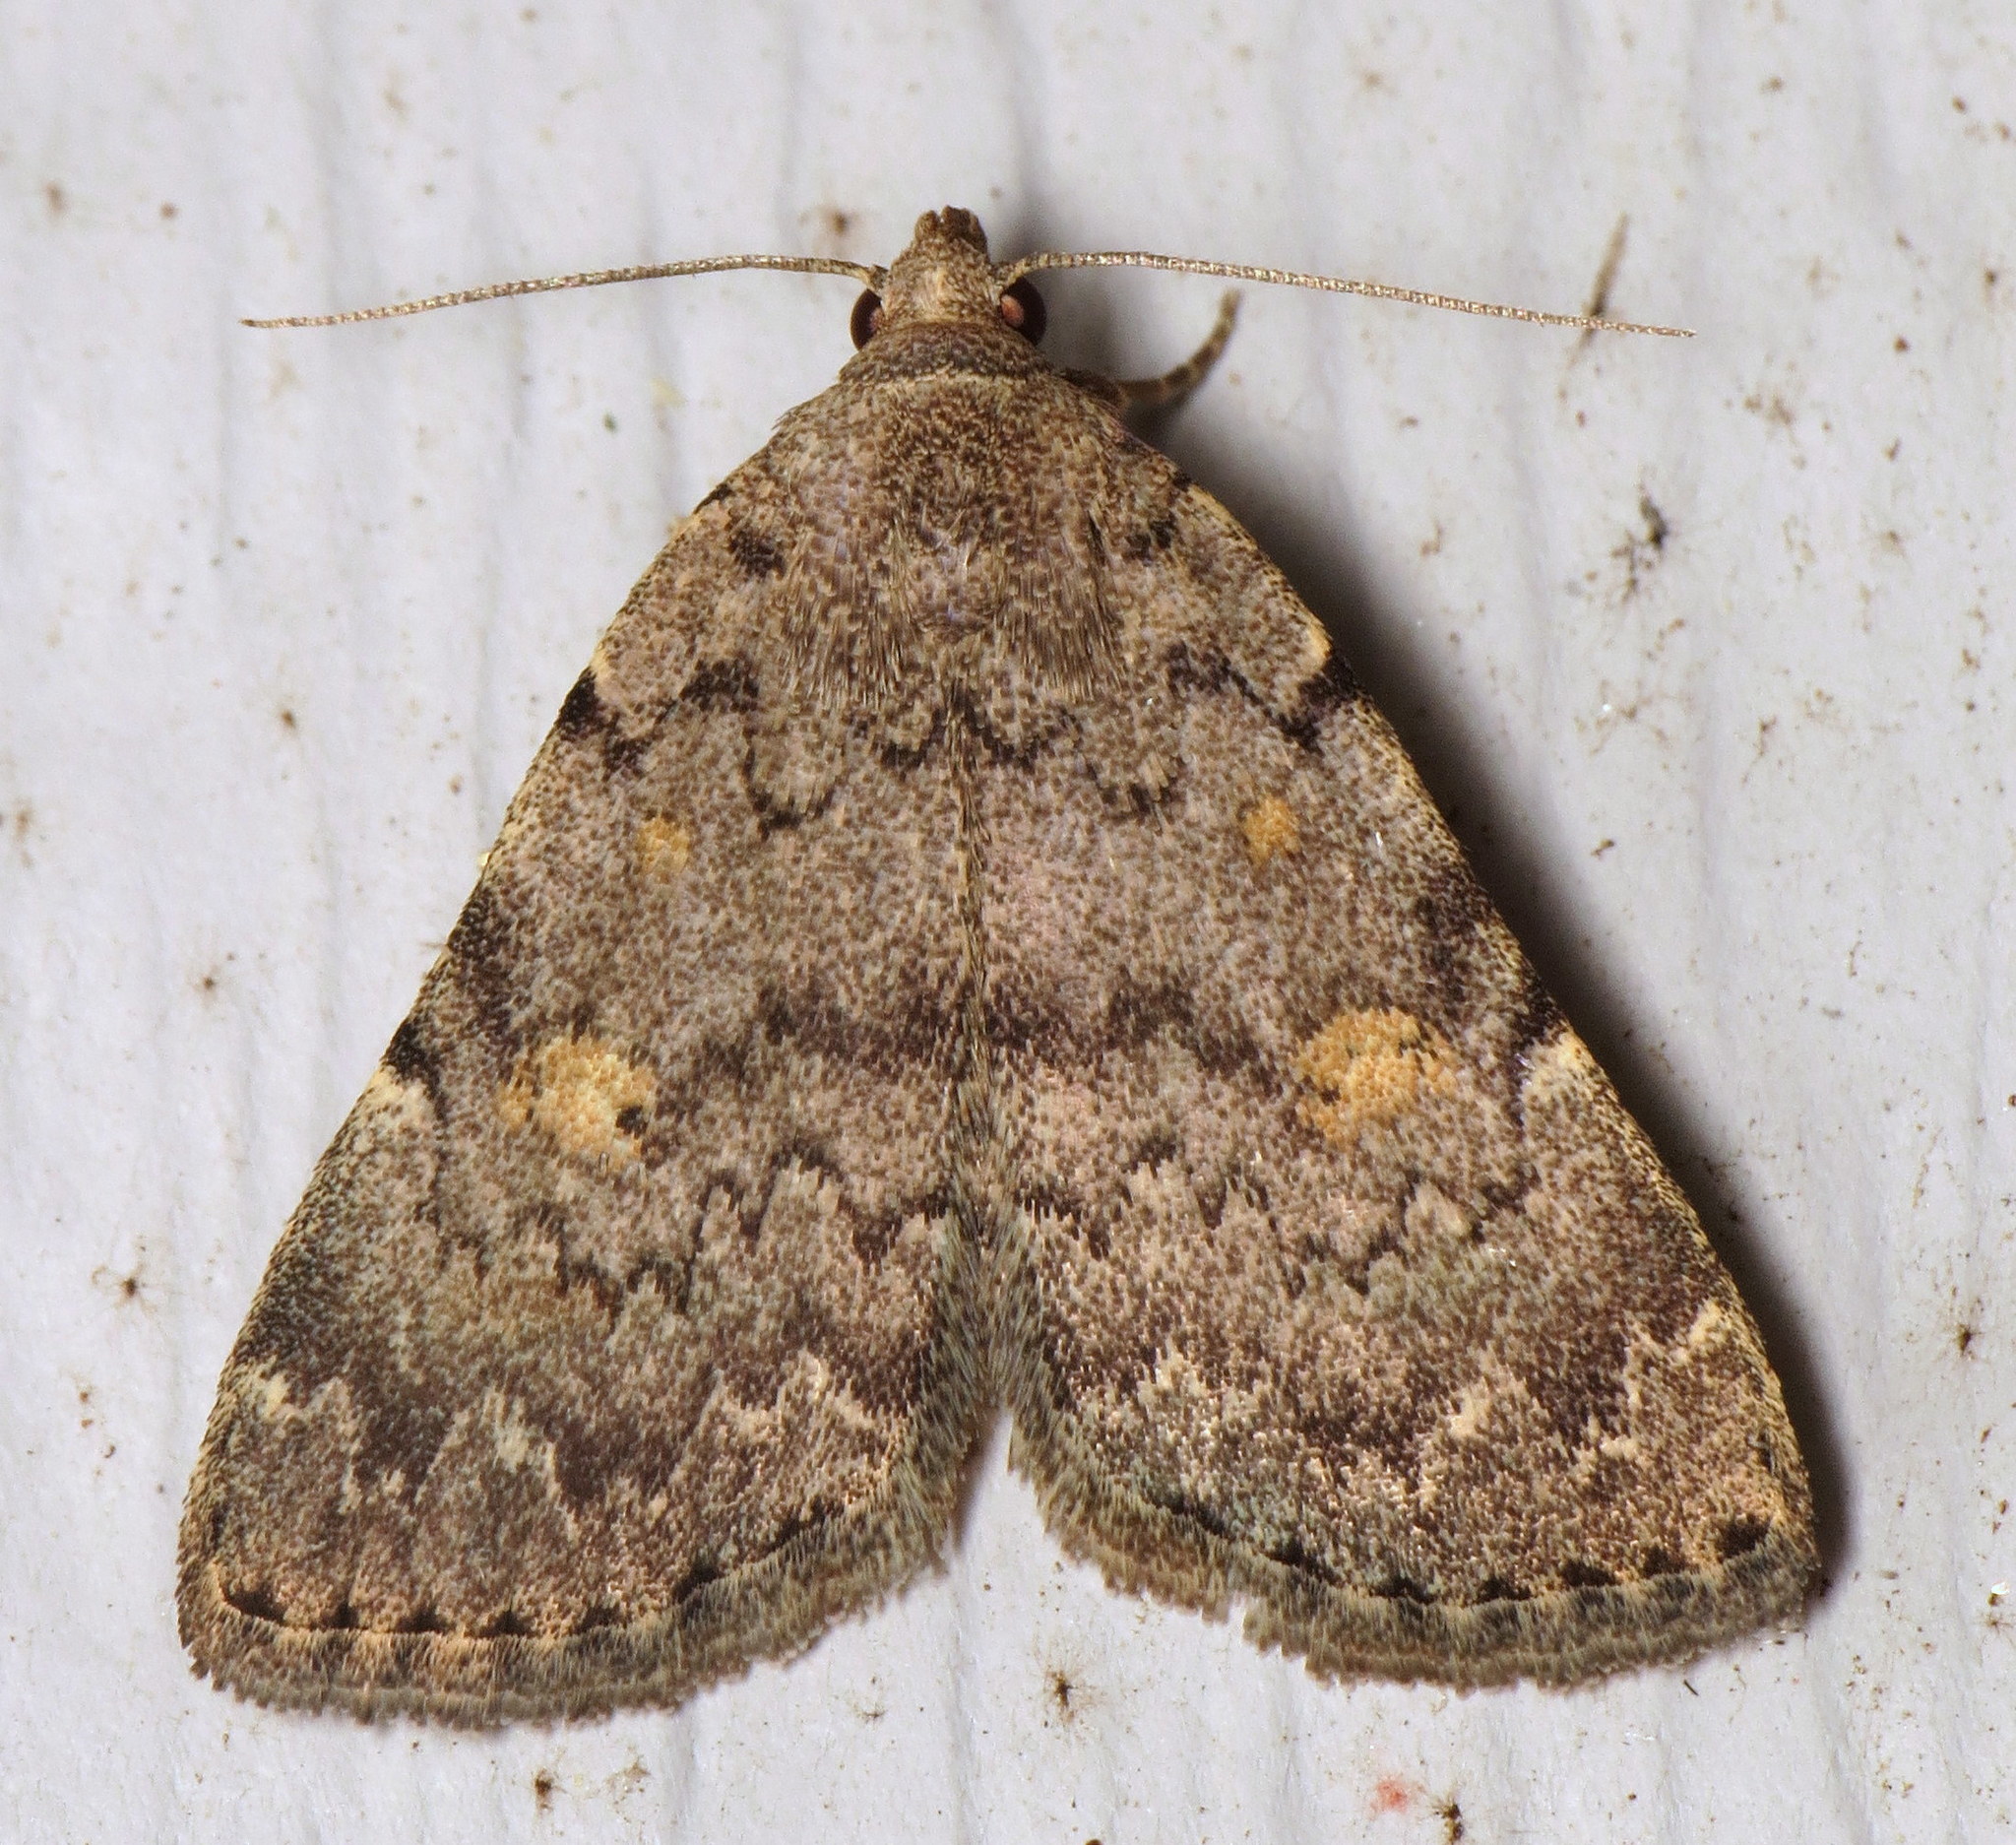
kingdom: Animalia
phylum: Arthropoda
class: Insecta
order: Lepidoptera
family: Erebidae
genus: Idia
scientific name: Idia aemula
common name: Common idia moth
